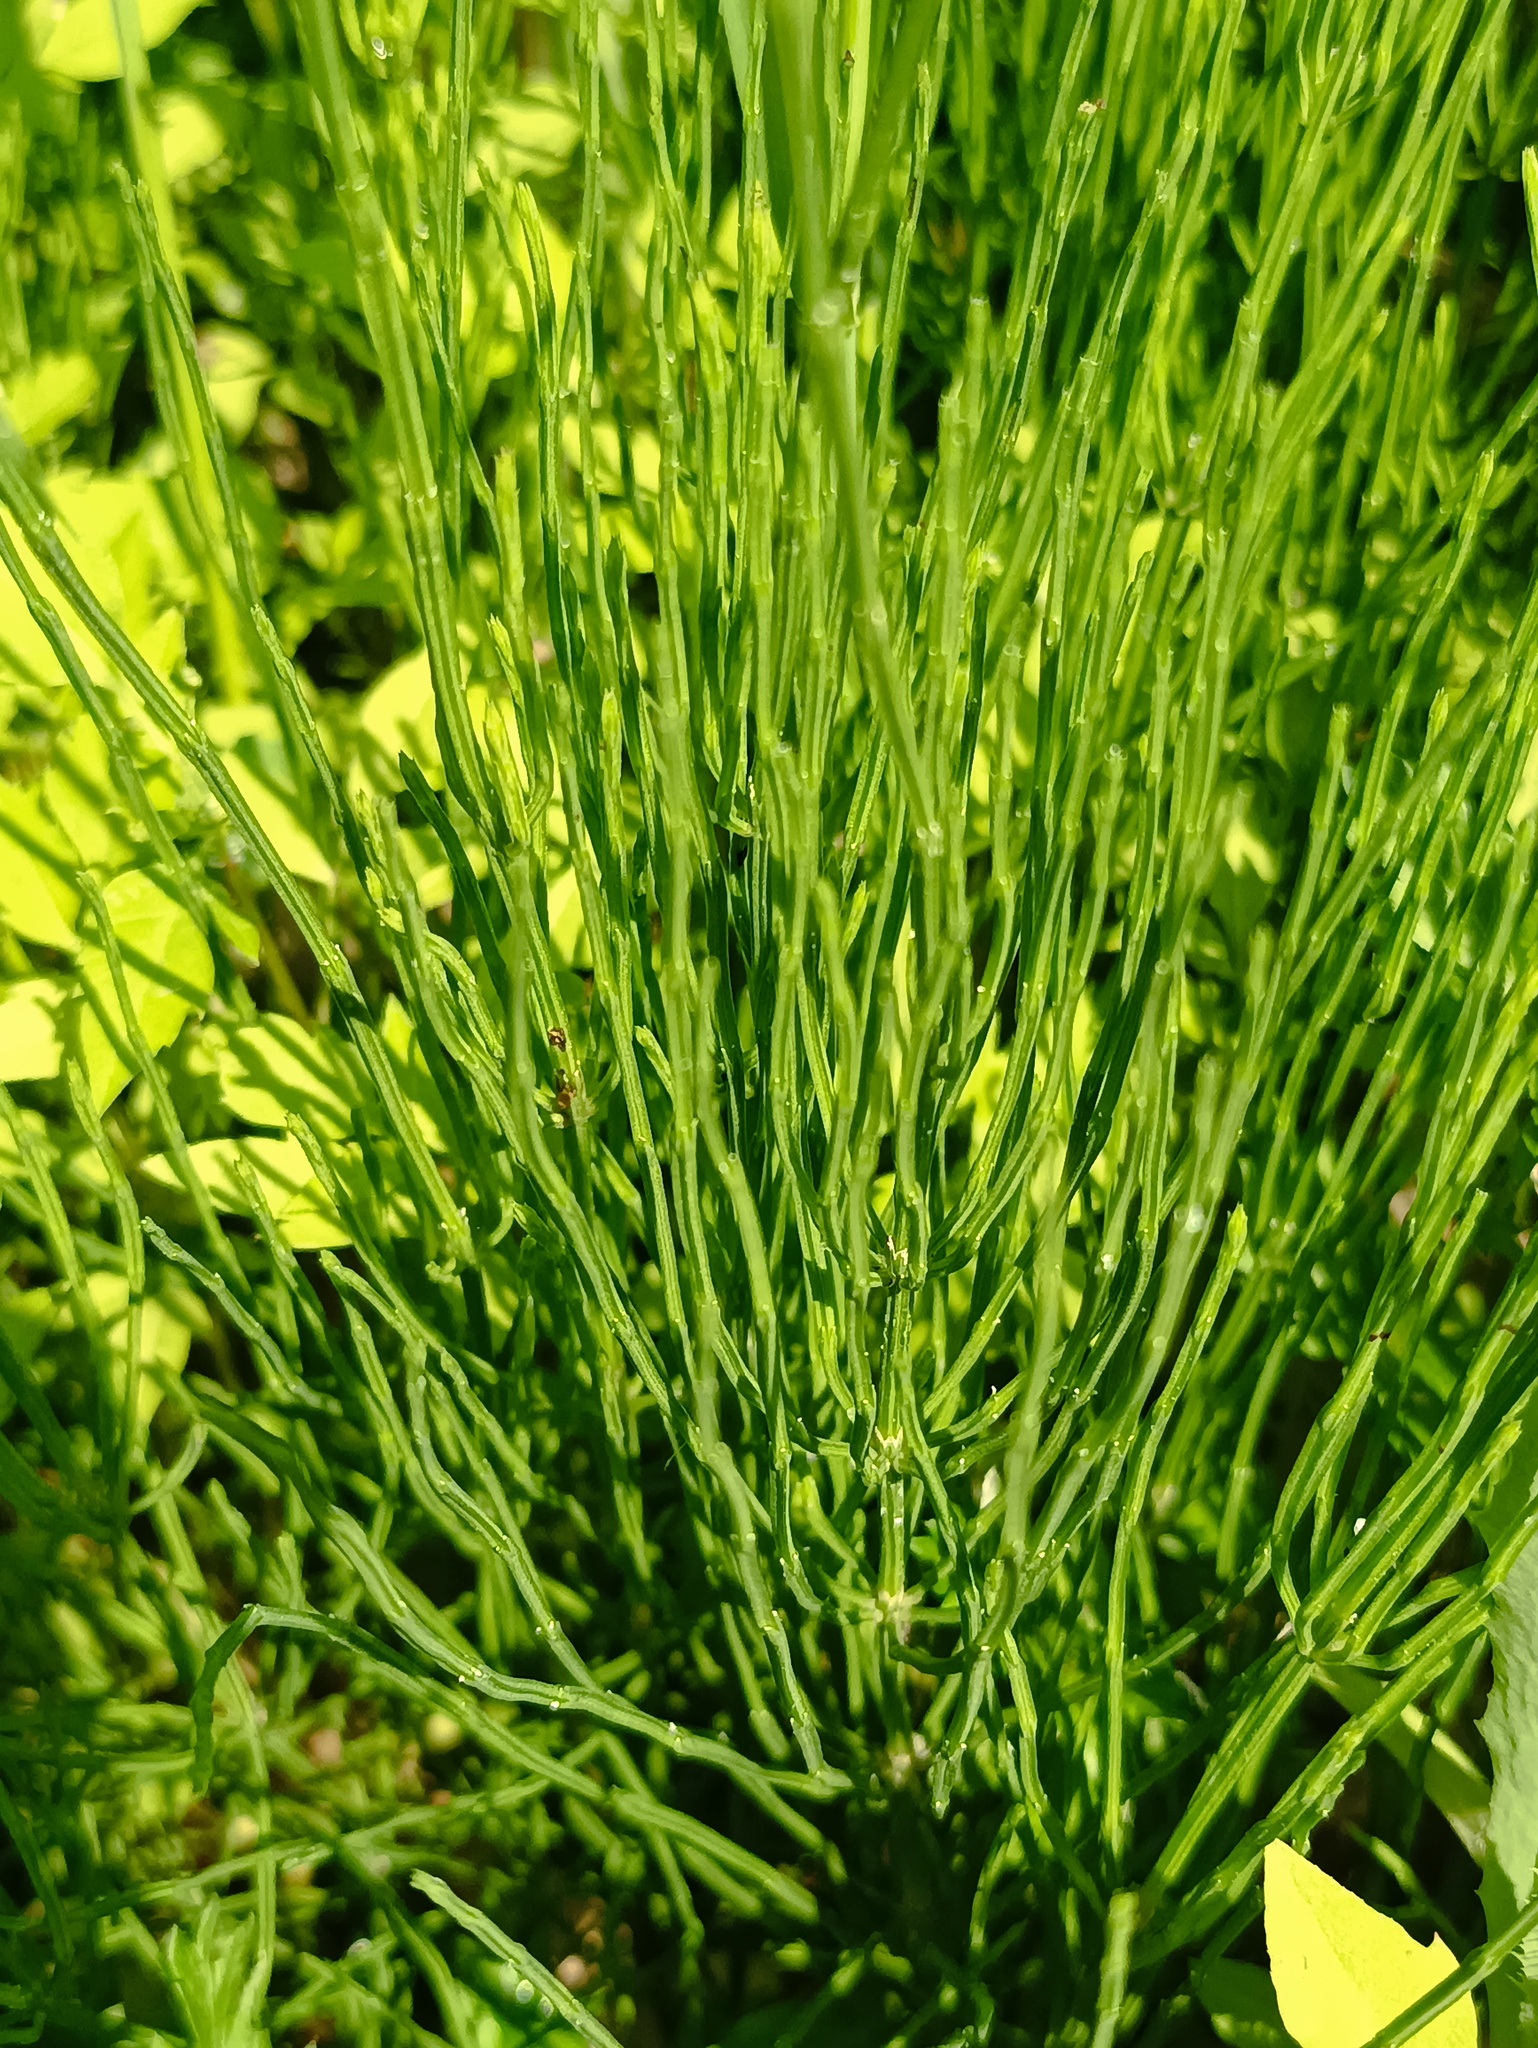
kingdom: Plantae
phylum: Tracheophyta
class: Polypodiopsida
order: Equisetales
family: Equisetaceae
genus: Equisetum
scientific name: Equisetum arvense
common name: Field horsetail
